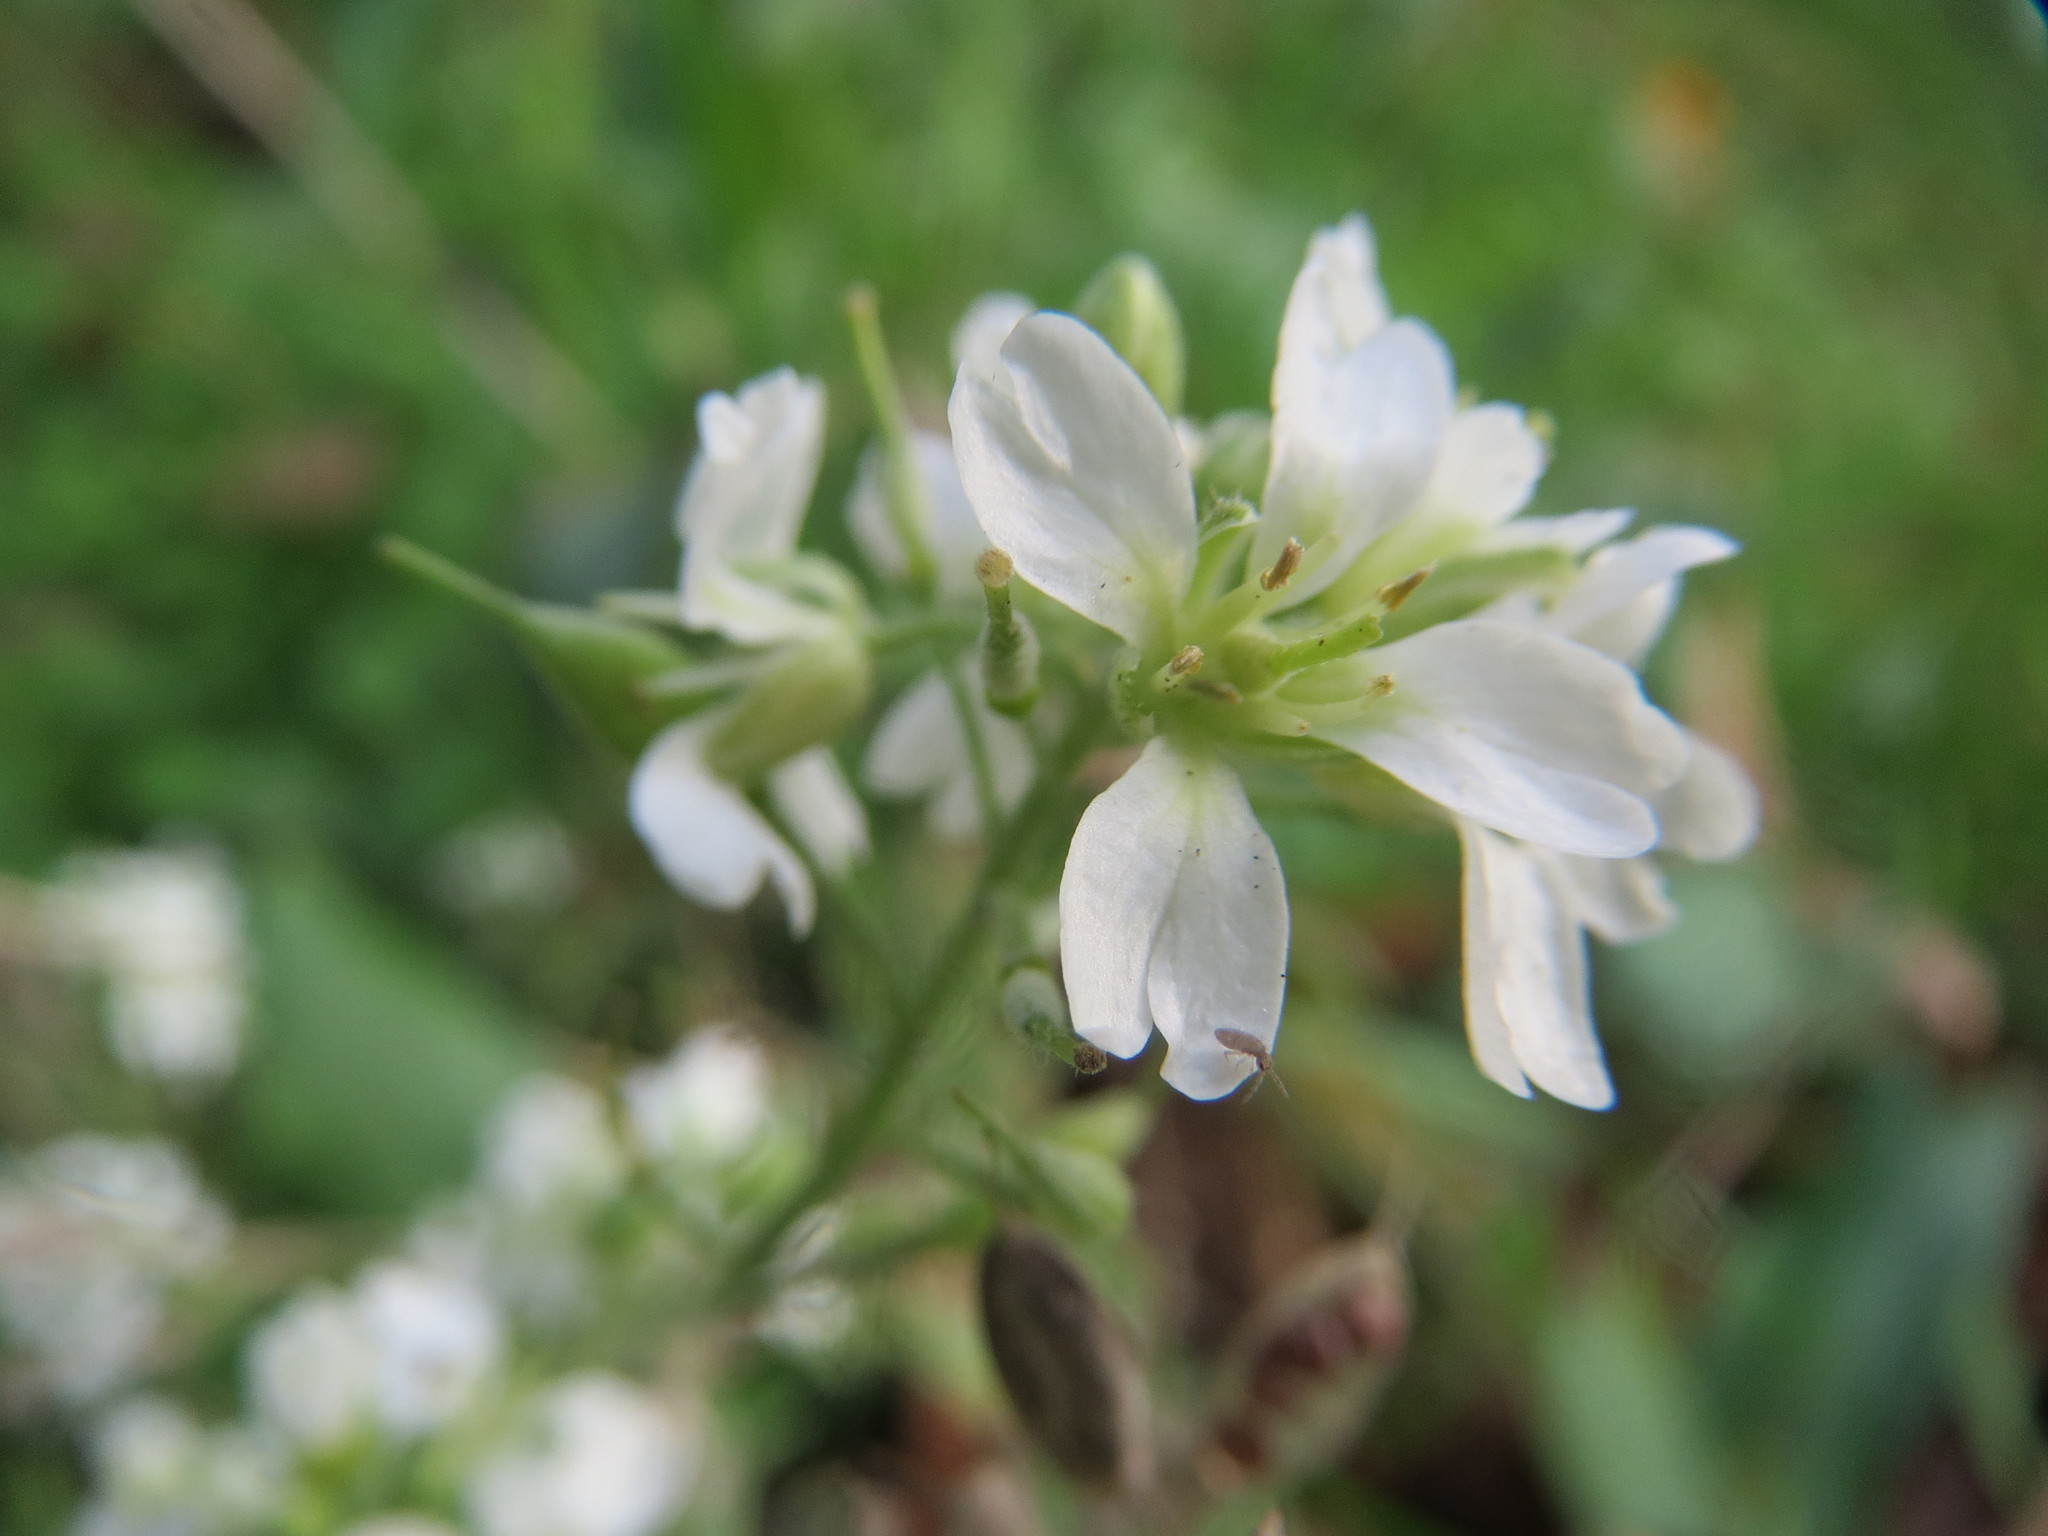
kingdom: Plantae
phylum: Tracheophyta
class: Magnoliopsida
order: Brassicales
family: Brassicaceae
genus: Berteroa
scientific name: Berteroa incana
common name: Hoary alison
